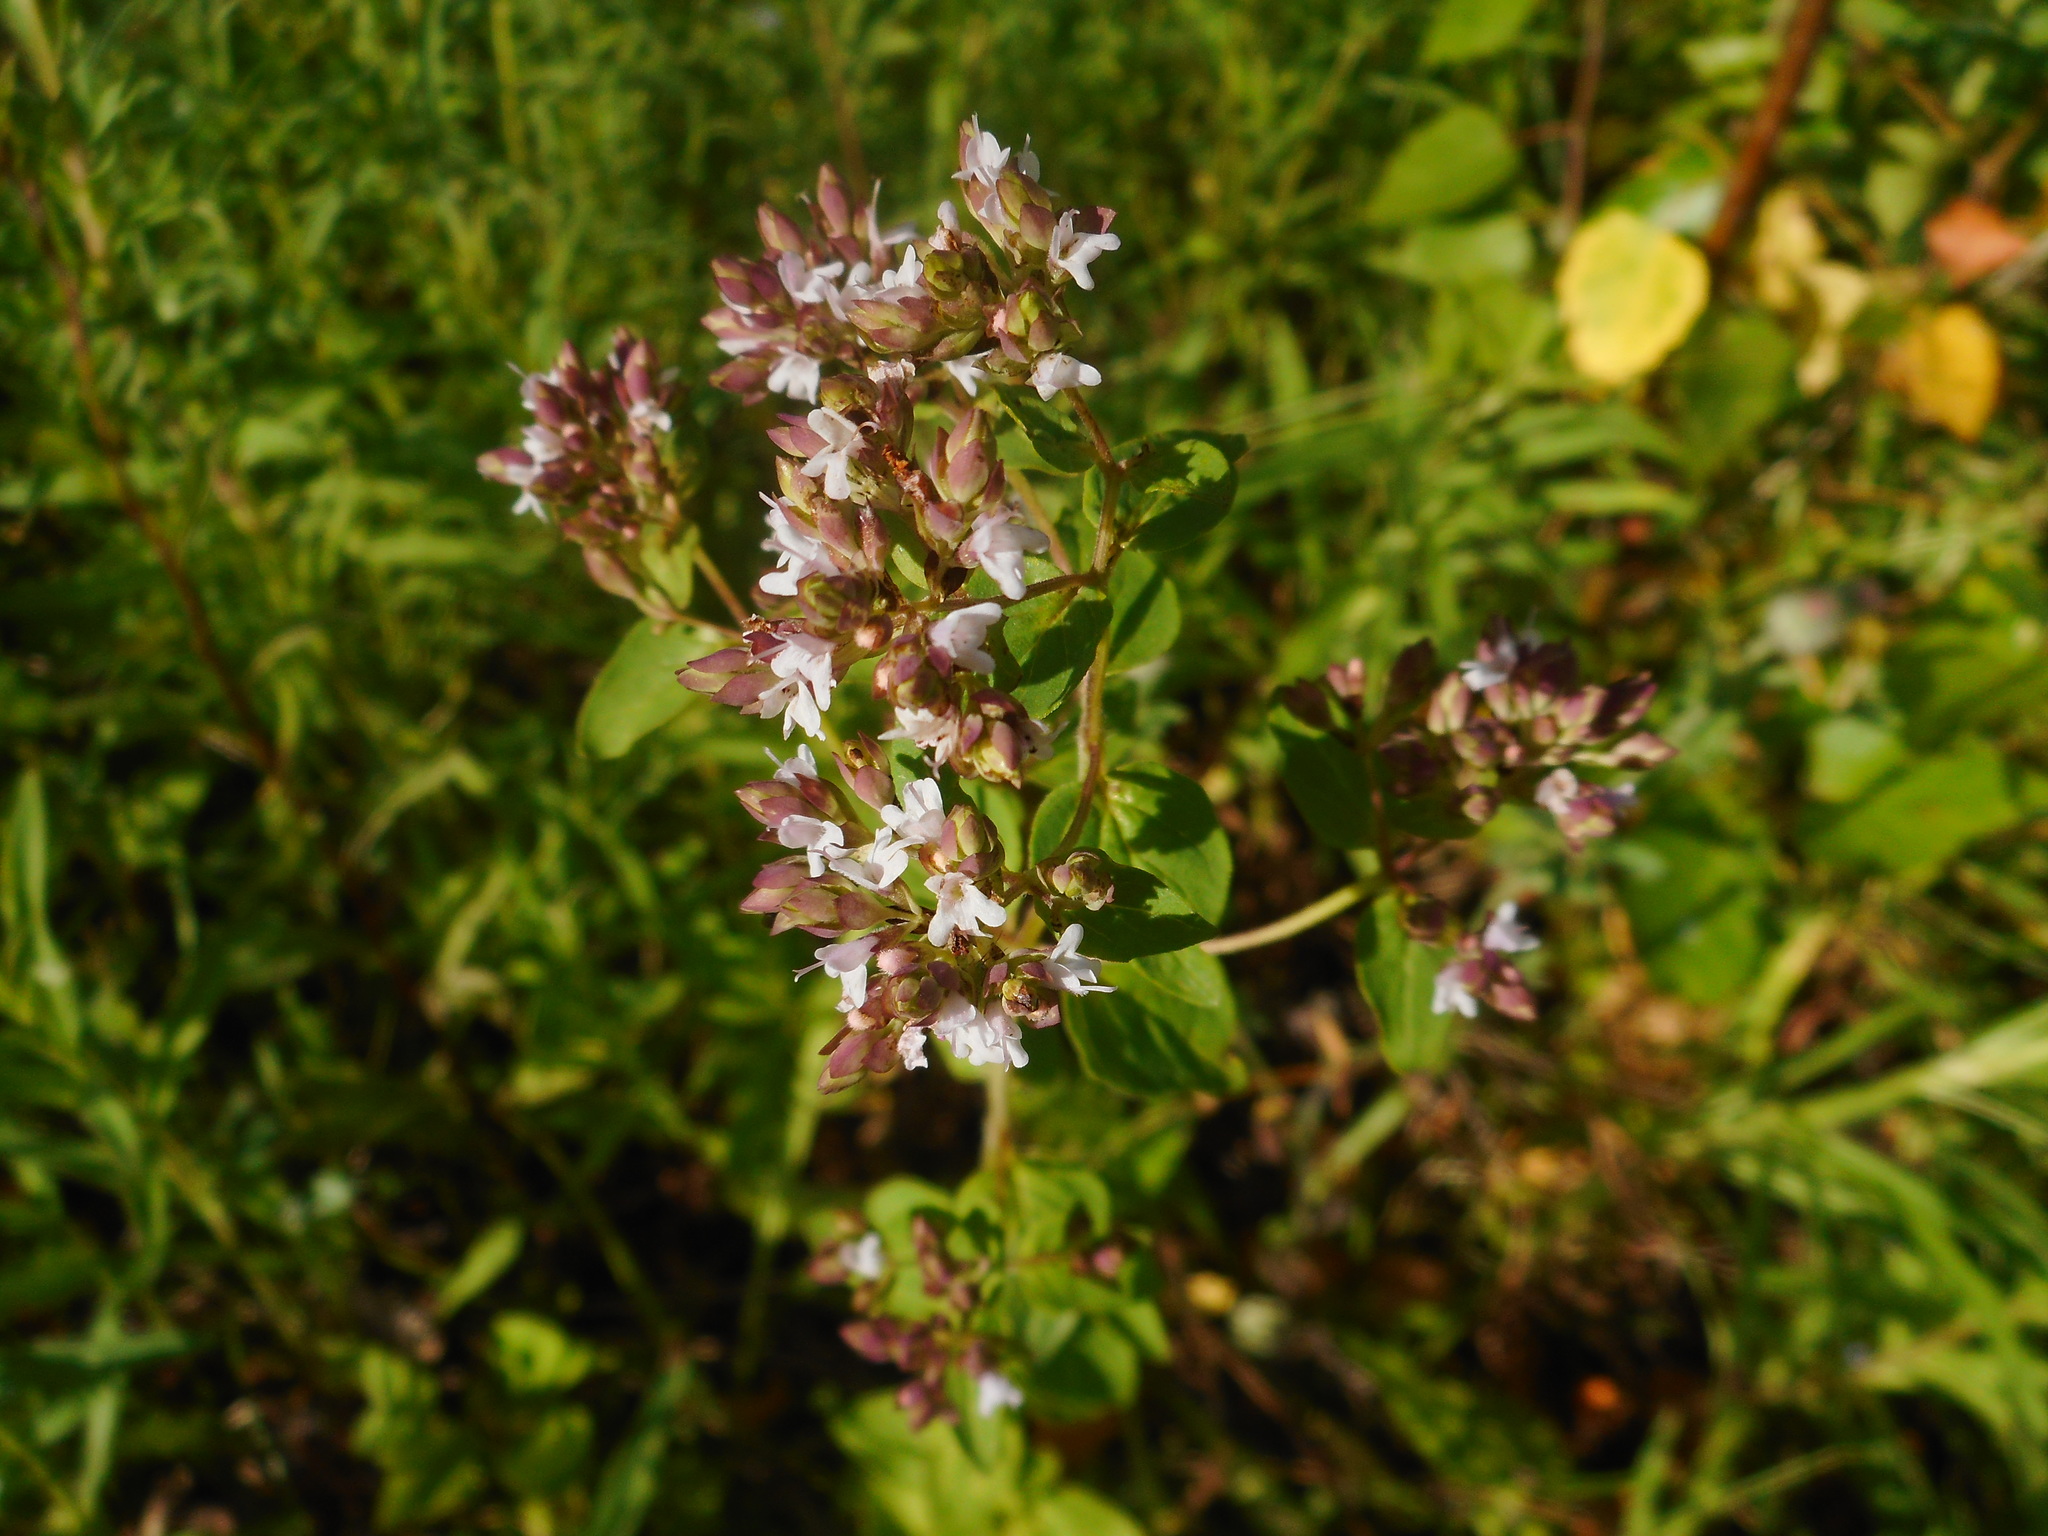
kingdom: Plantae
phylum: Tracheophyta
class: Magnoliopsida
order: Lamiales
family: Lamiaceae
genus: Origanum
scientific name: Origanum vulgare
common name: Wild marjoram
